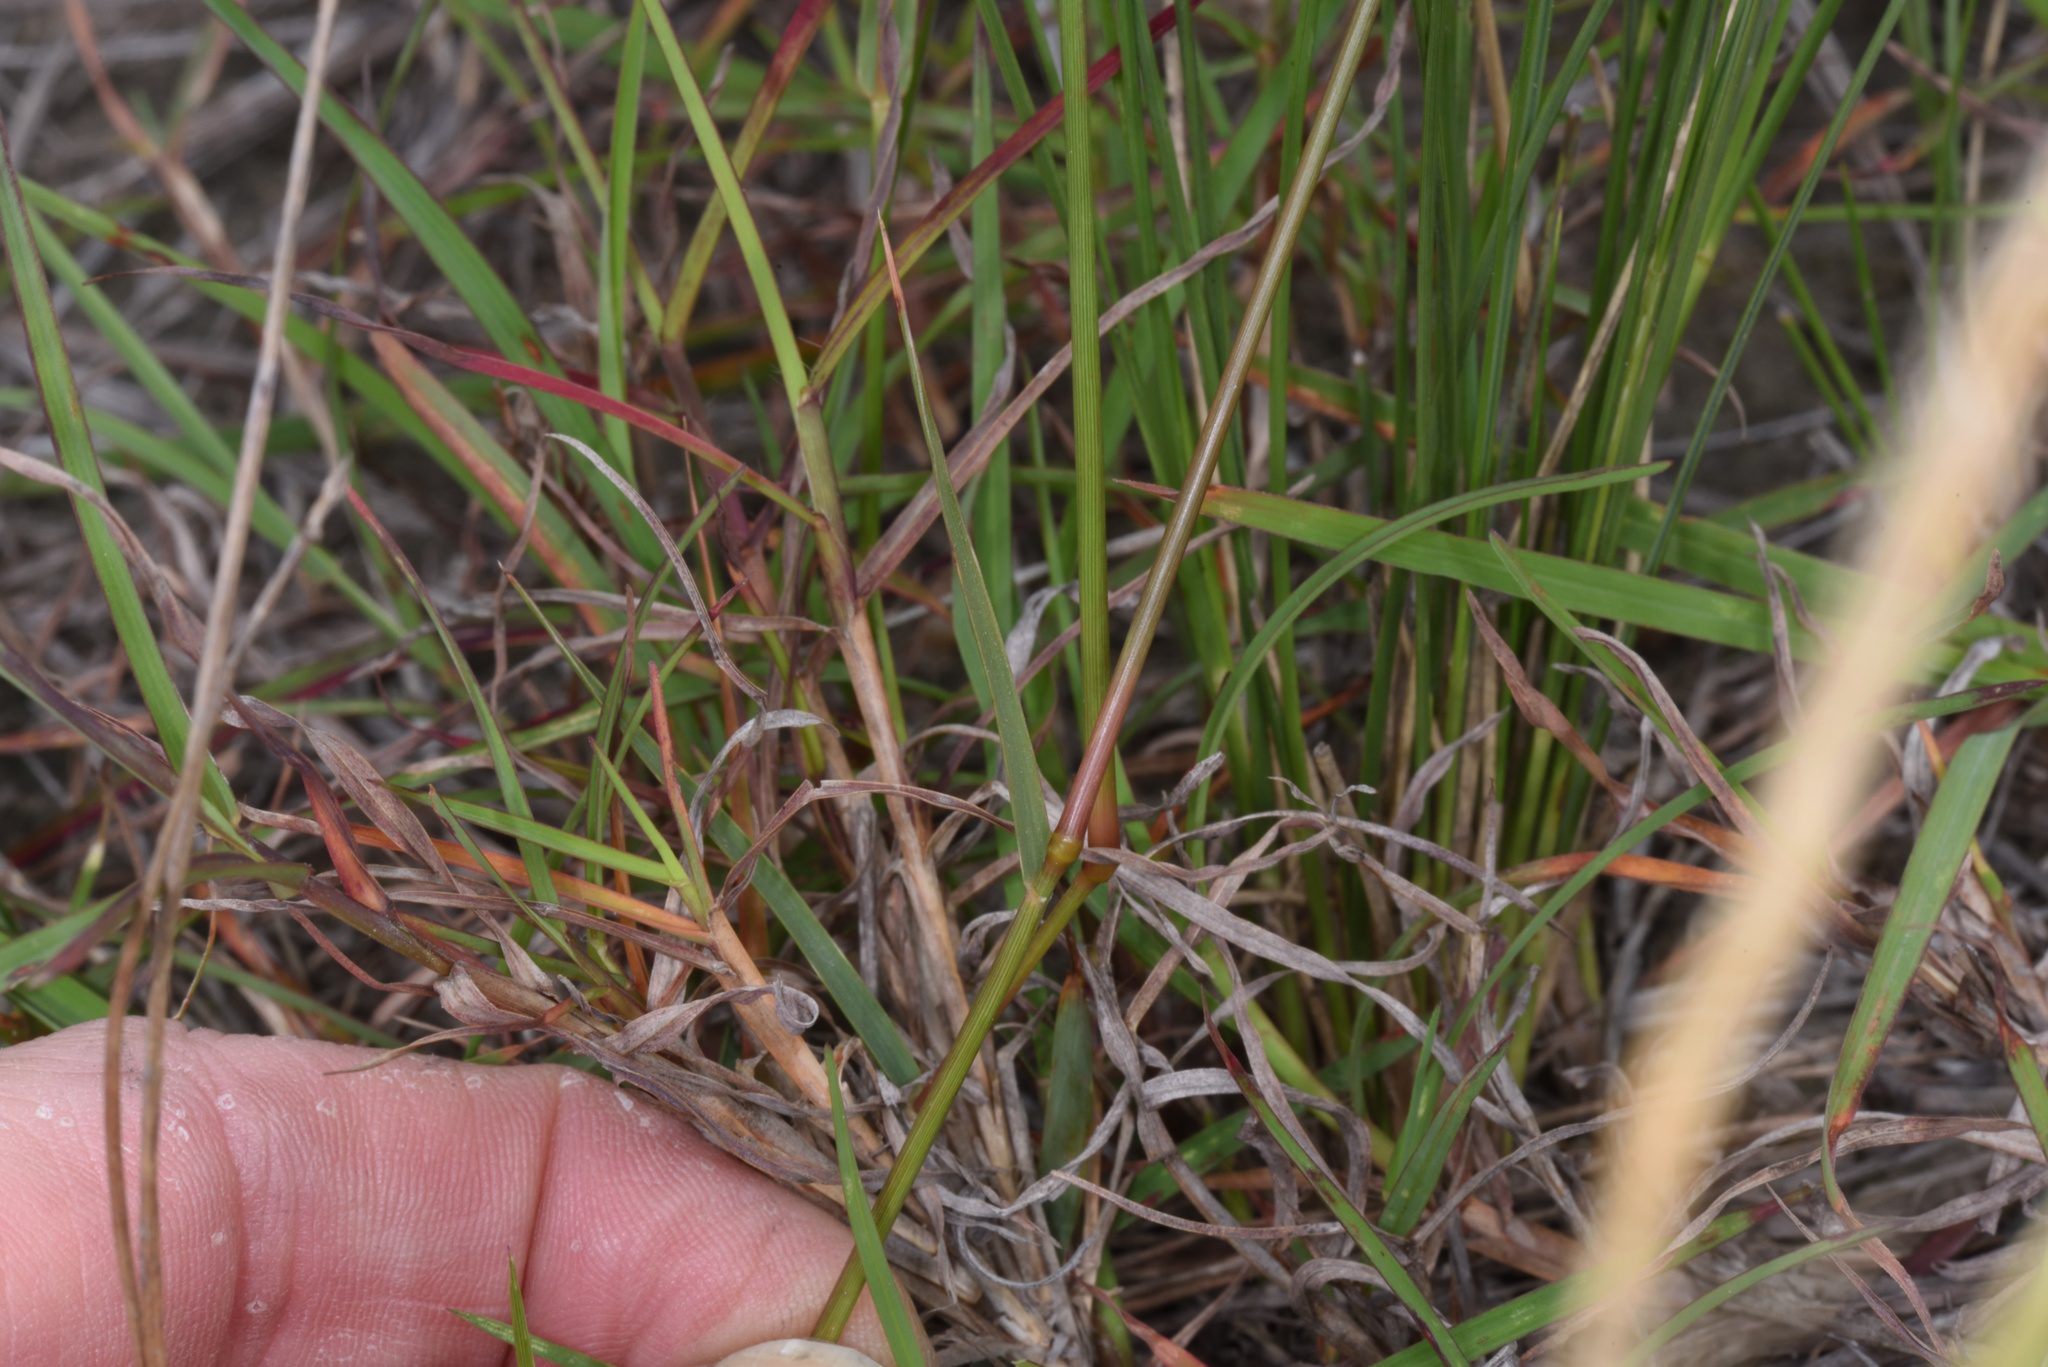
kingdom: Plantae
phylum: Tracheophyta
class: Liliopsida
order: Poales
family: Poaceae
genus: Eragrostis
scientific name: Eragrostis capensis
